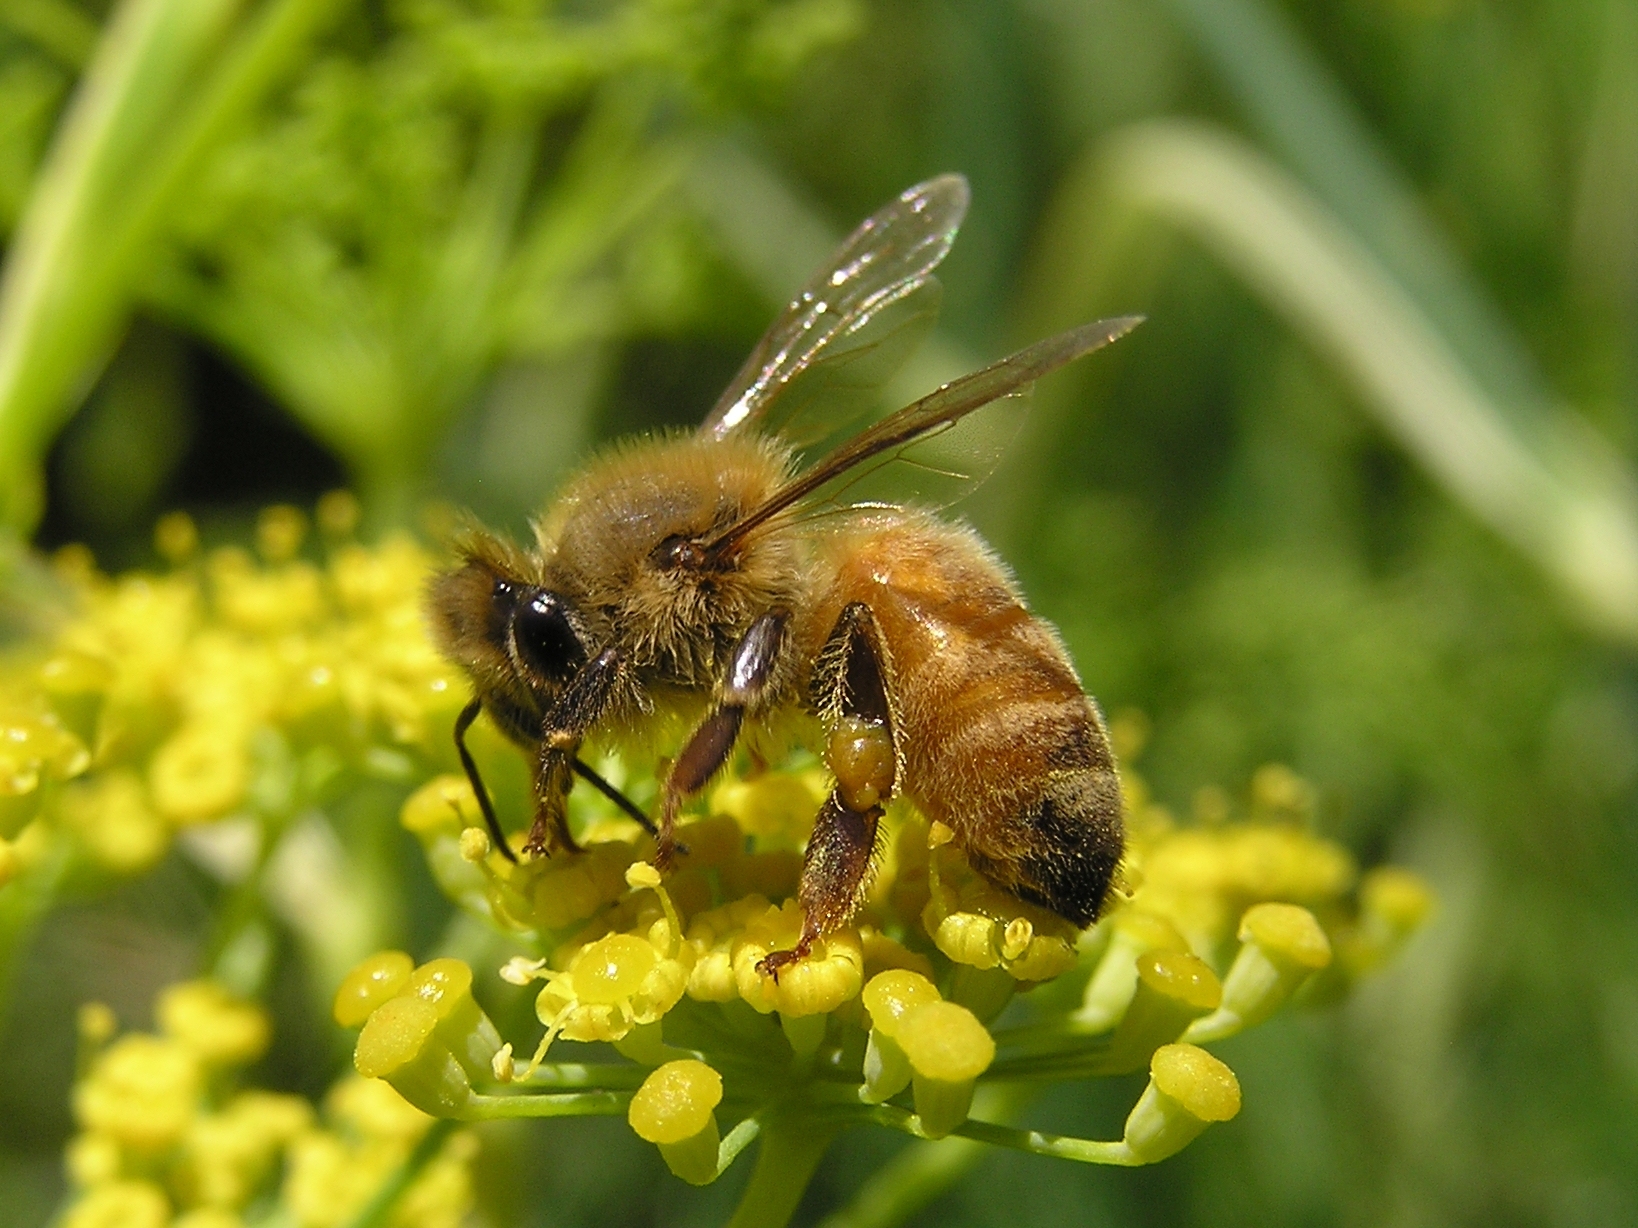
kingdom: Animalia
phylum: Arthropoda
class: Insecta
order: Hymenoptera
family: Apidae
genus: Apis
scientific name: Apis mellifera
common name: Honey bee
